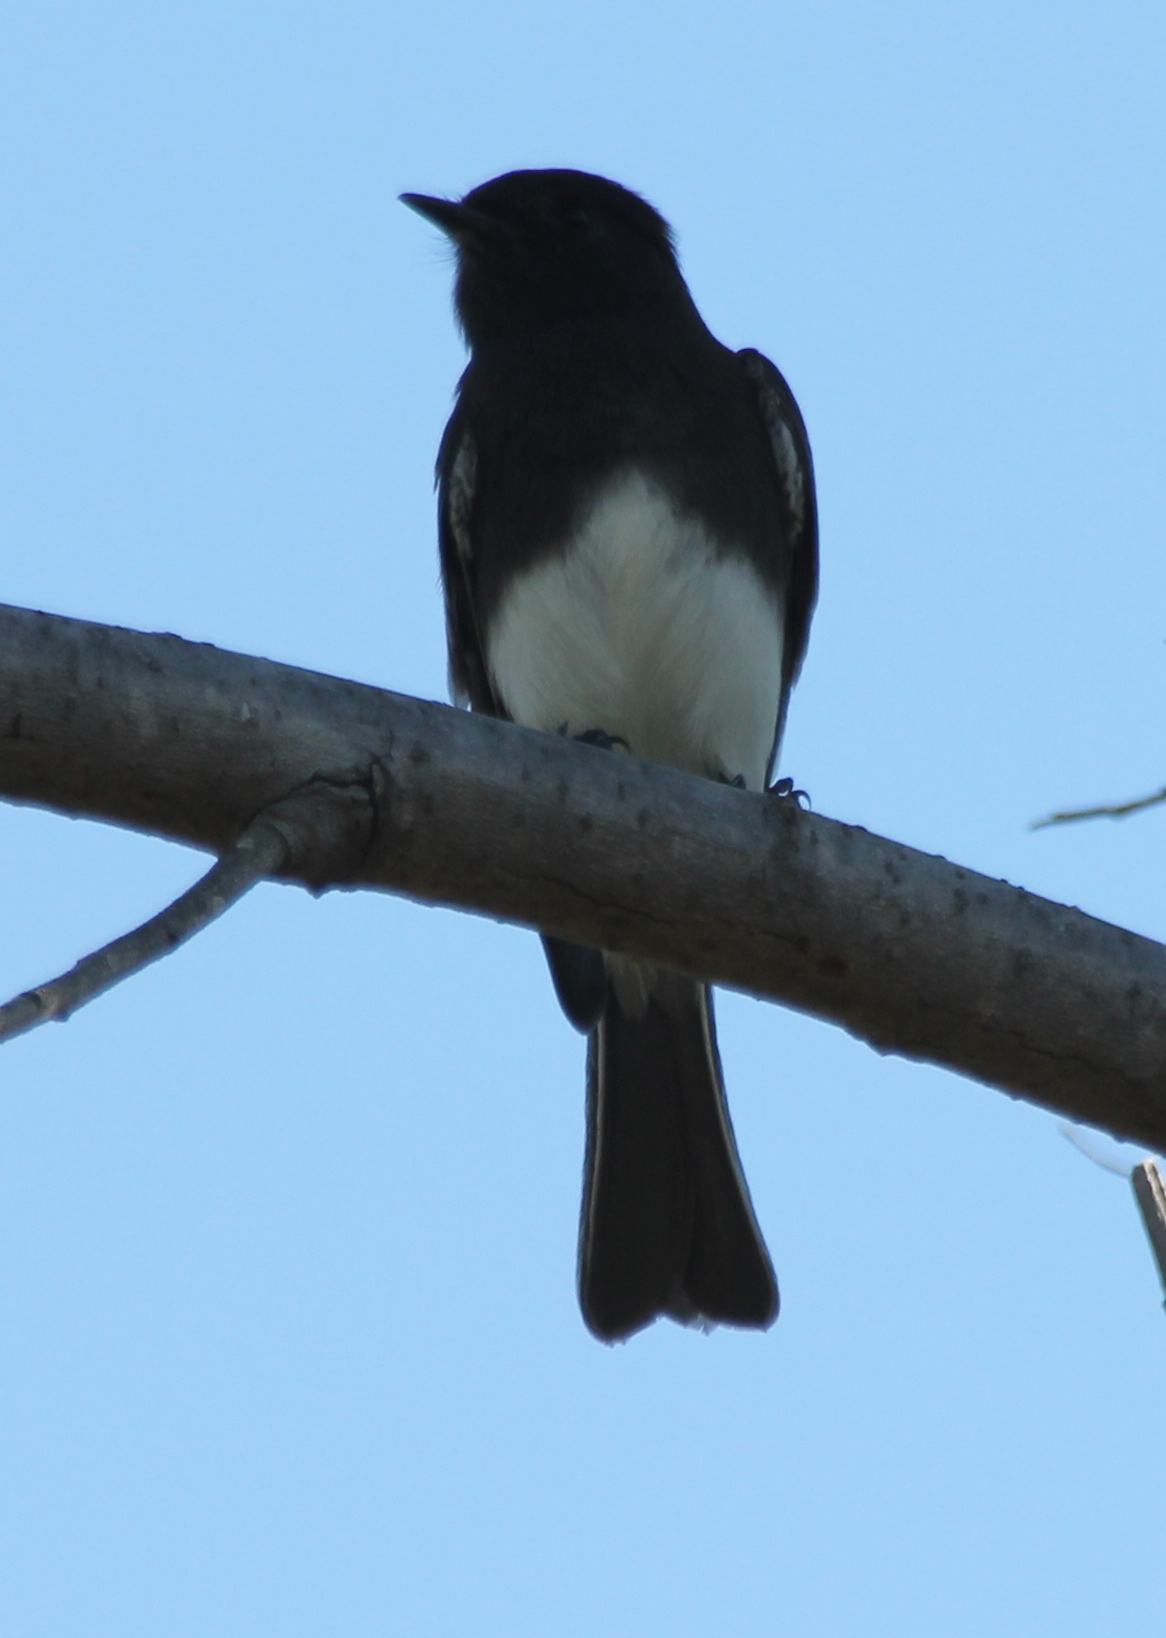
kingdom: Animalia
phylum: Chordata
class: Aves
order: Passeriformes
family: Tyrannidae
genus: Sayornis
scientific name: Sayornis nigricans
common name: Black phoebe
